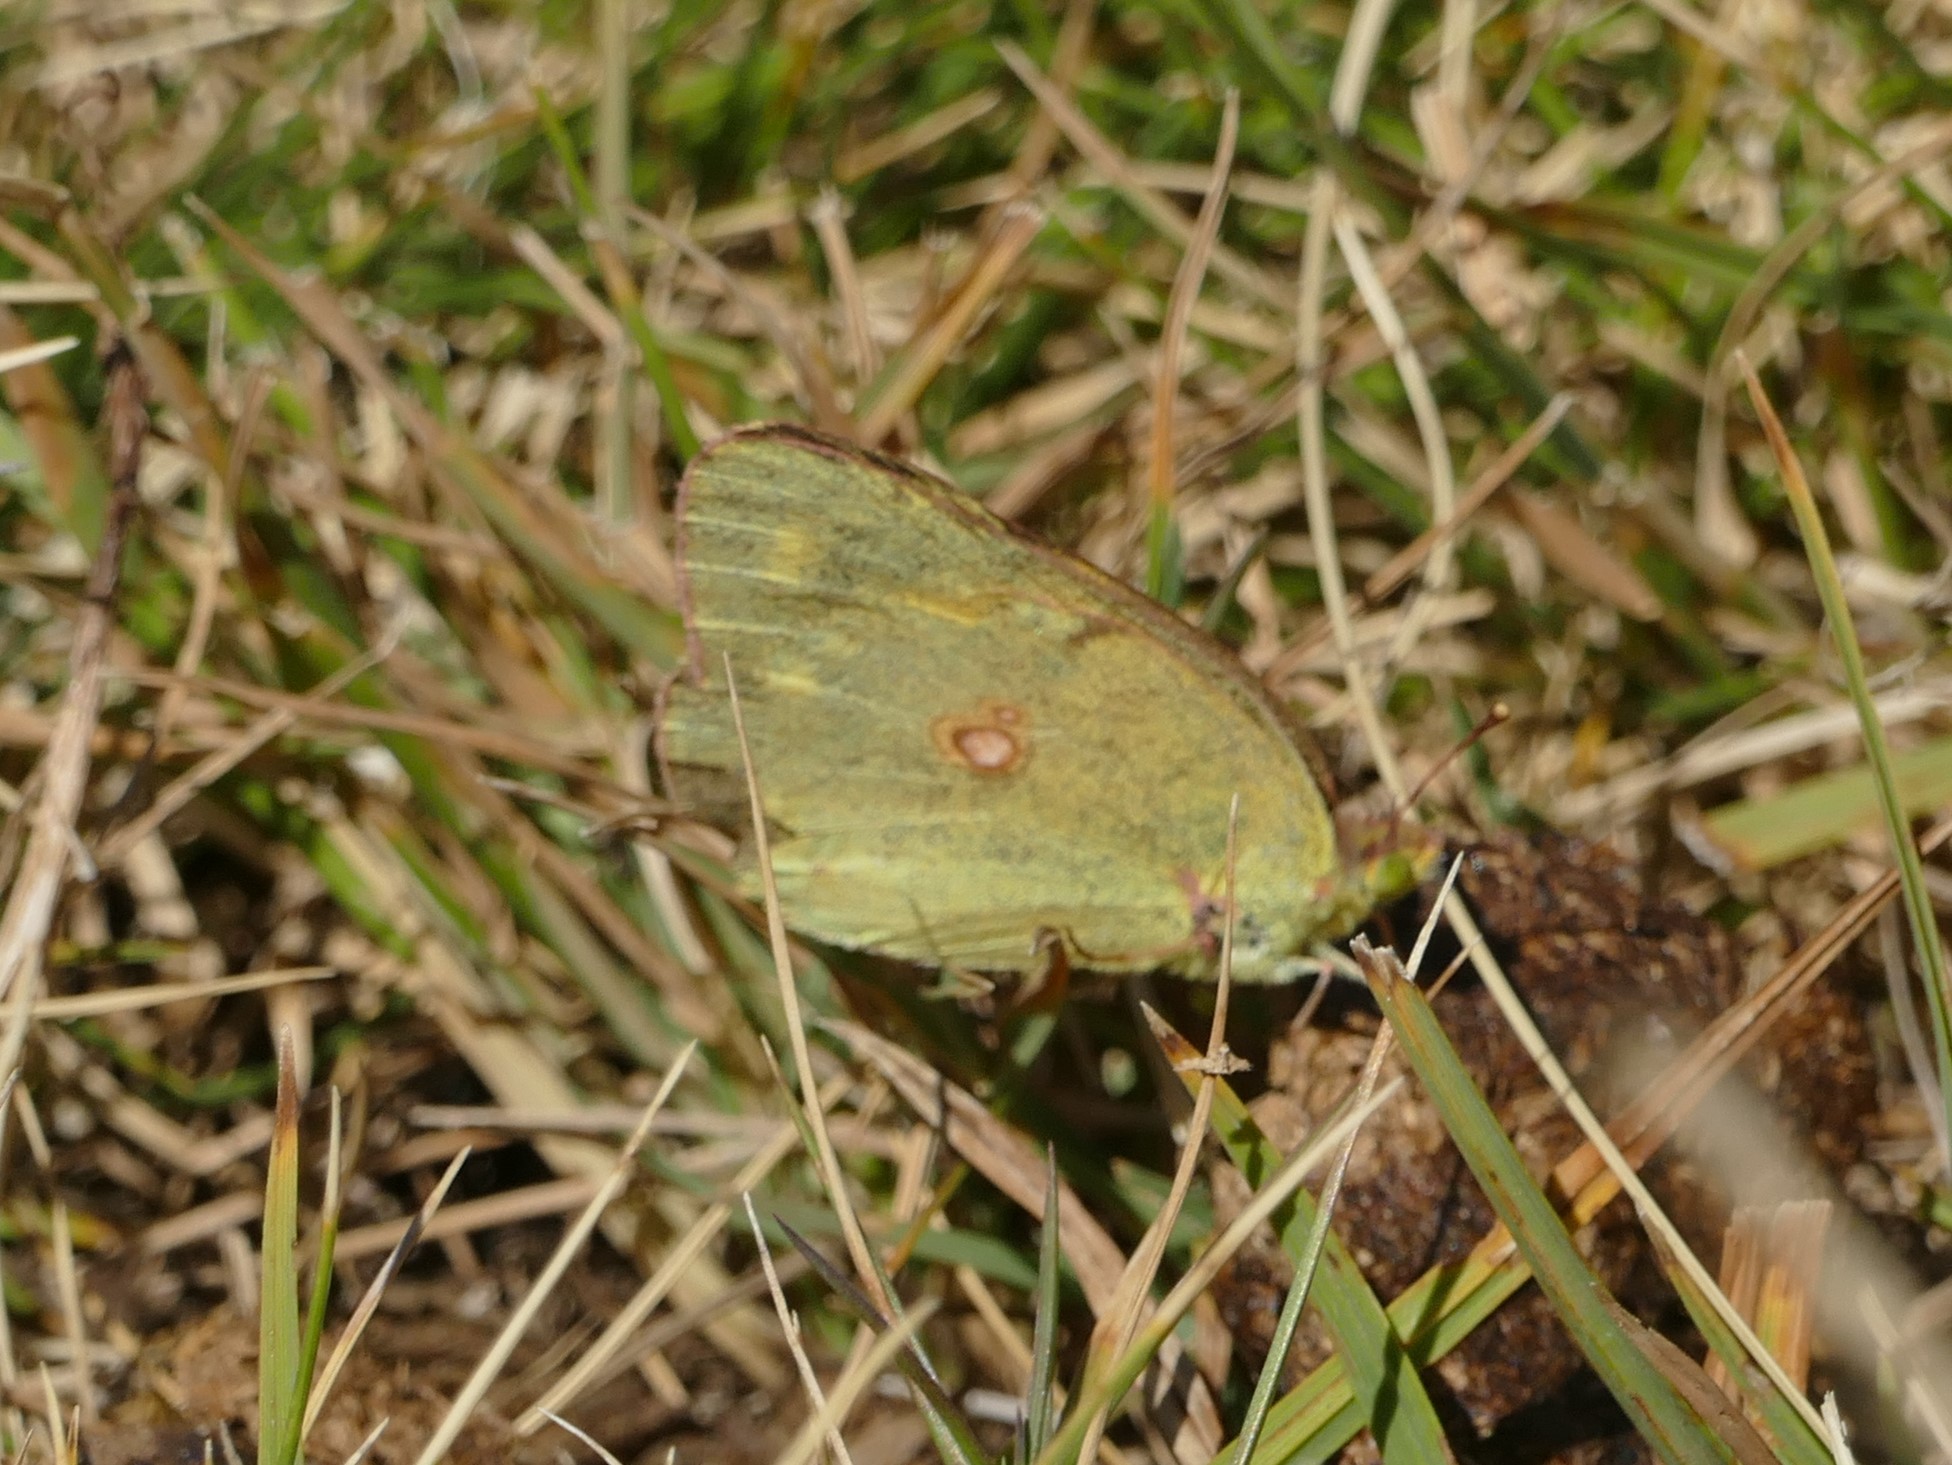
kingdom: Animalia
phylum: Arthropoda
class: Insecta
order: Lepidoptera
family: Pieridae
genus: Colias
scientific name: Colias alfacariensis
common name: Berger's clouded yellow
